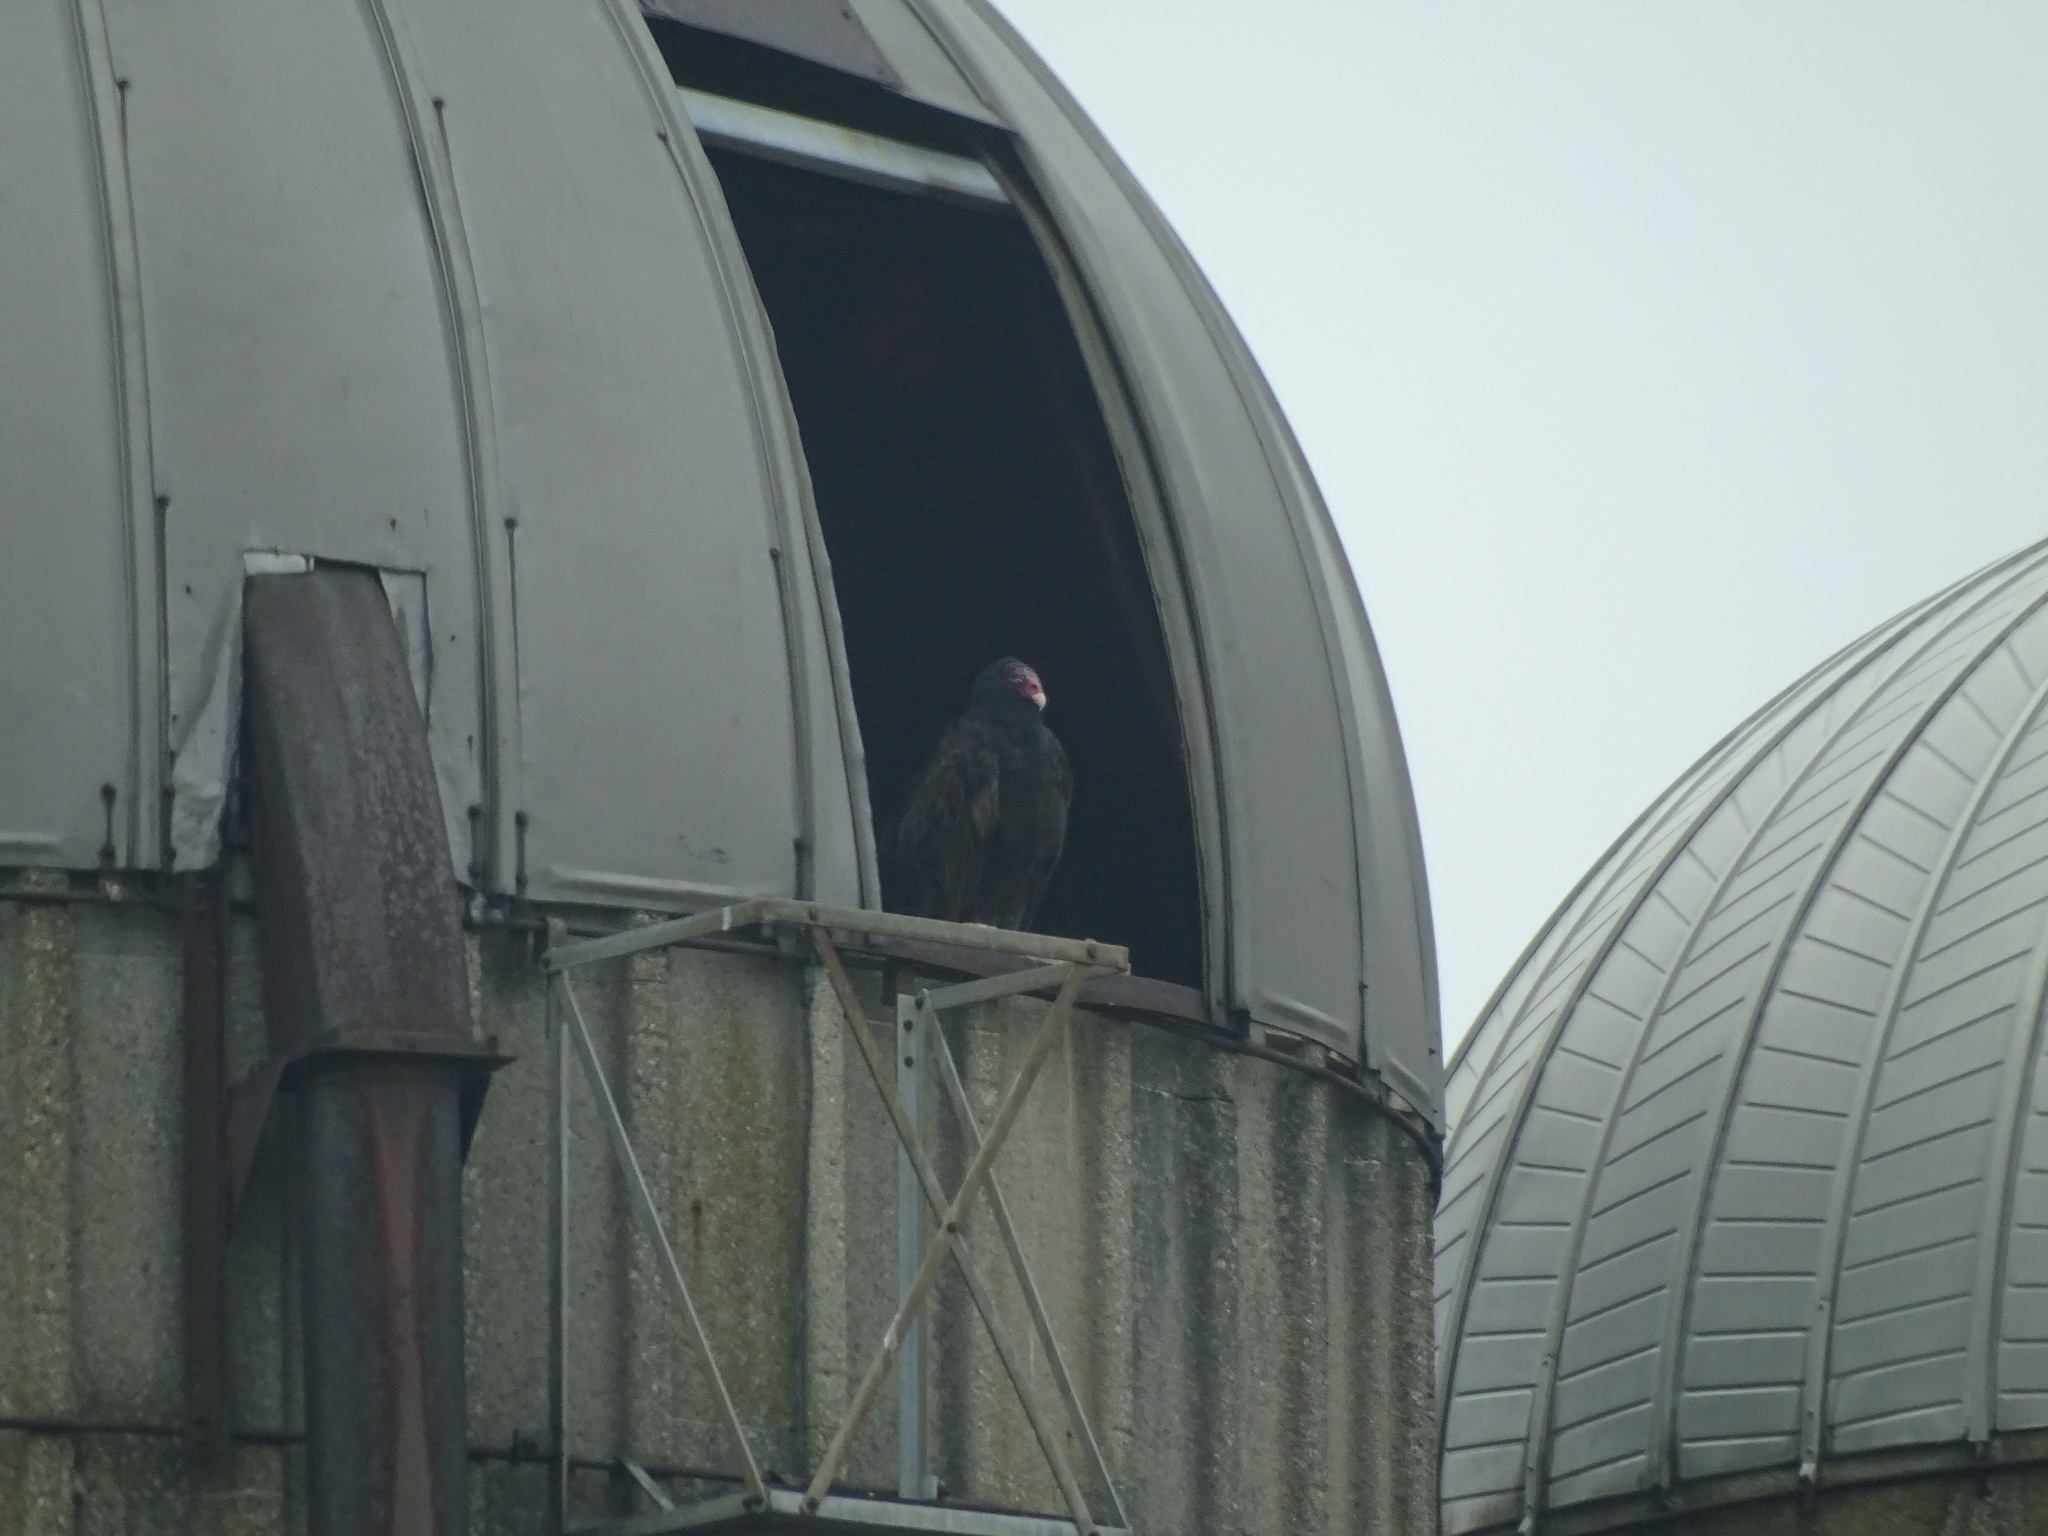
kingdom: Animalia
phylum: Chordata
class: Aves
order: Accipitriformes
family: Cathartidae
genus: Cathartes
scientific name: Cathartes aura
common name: Turkey vulture
